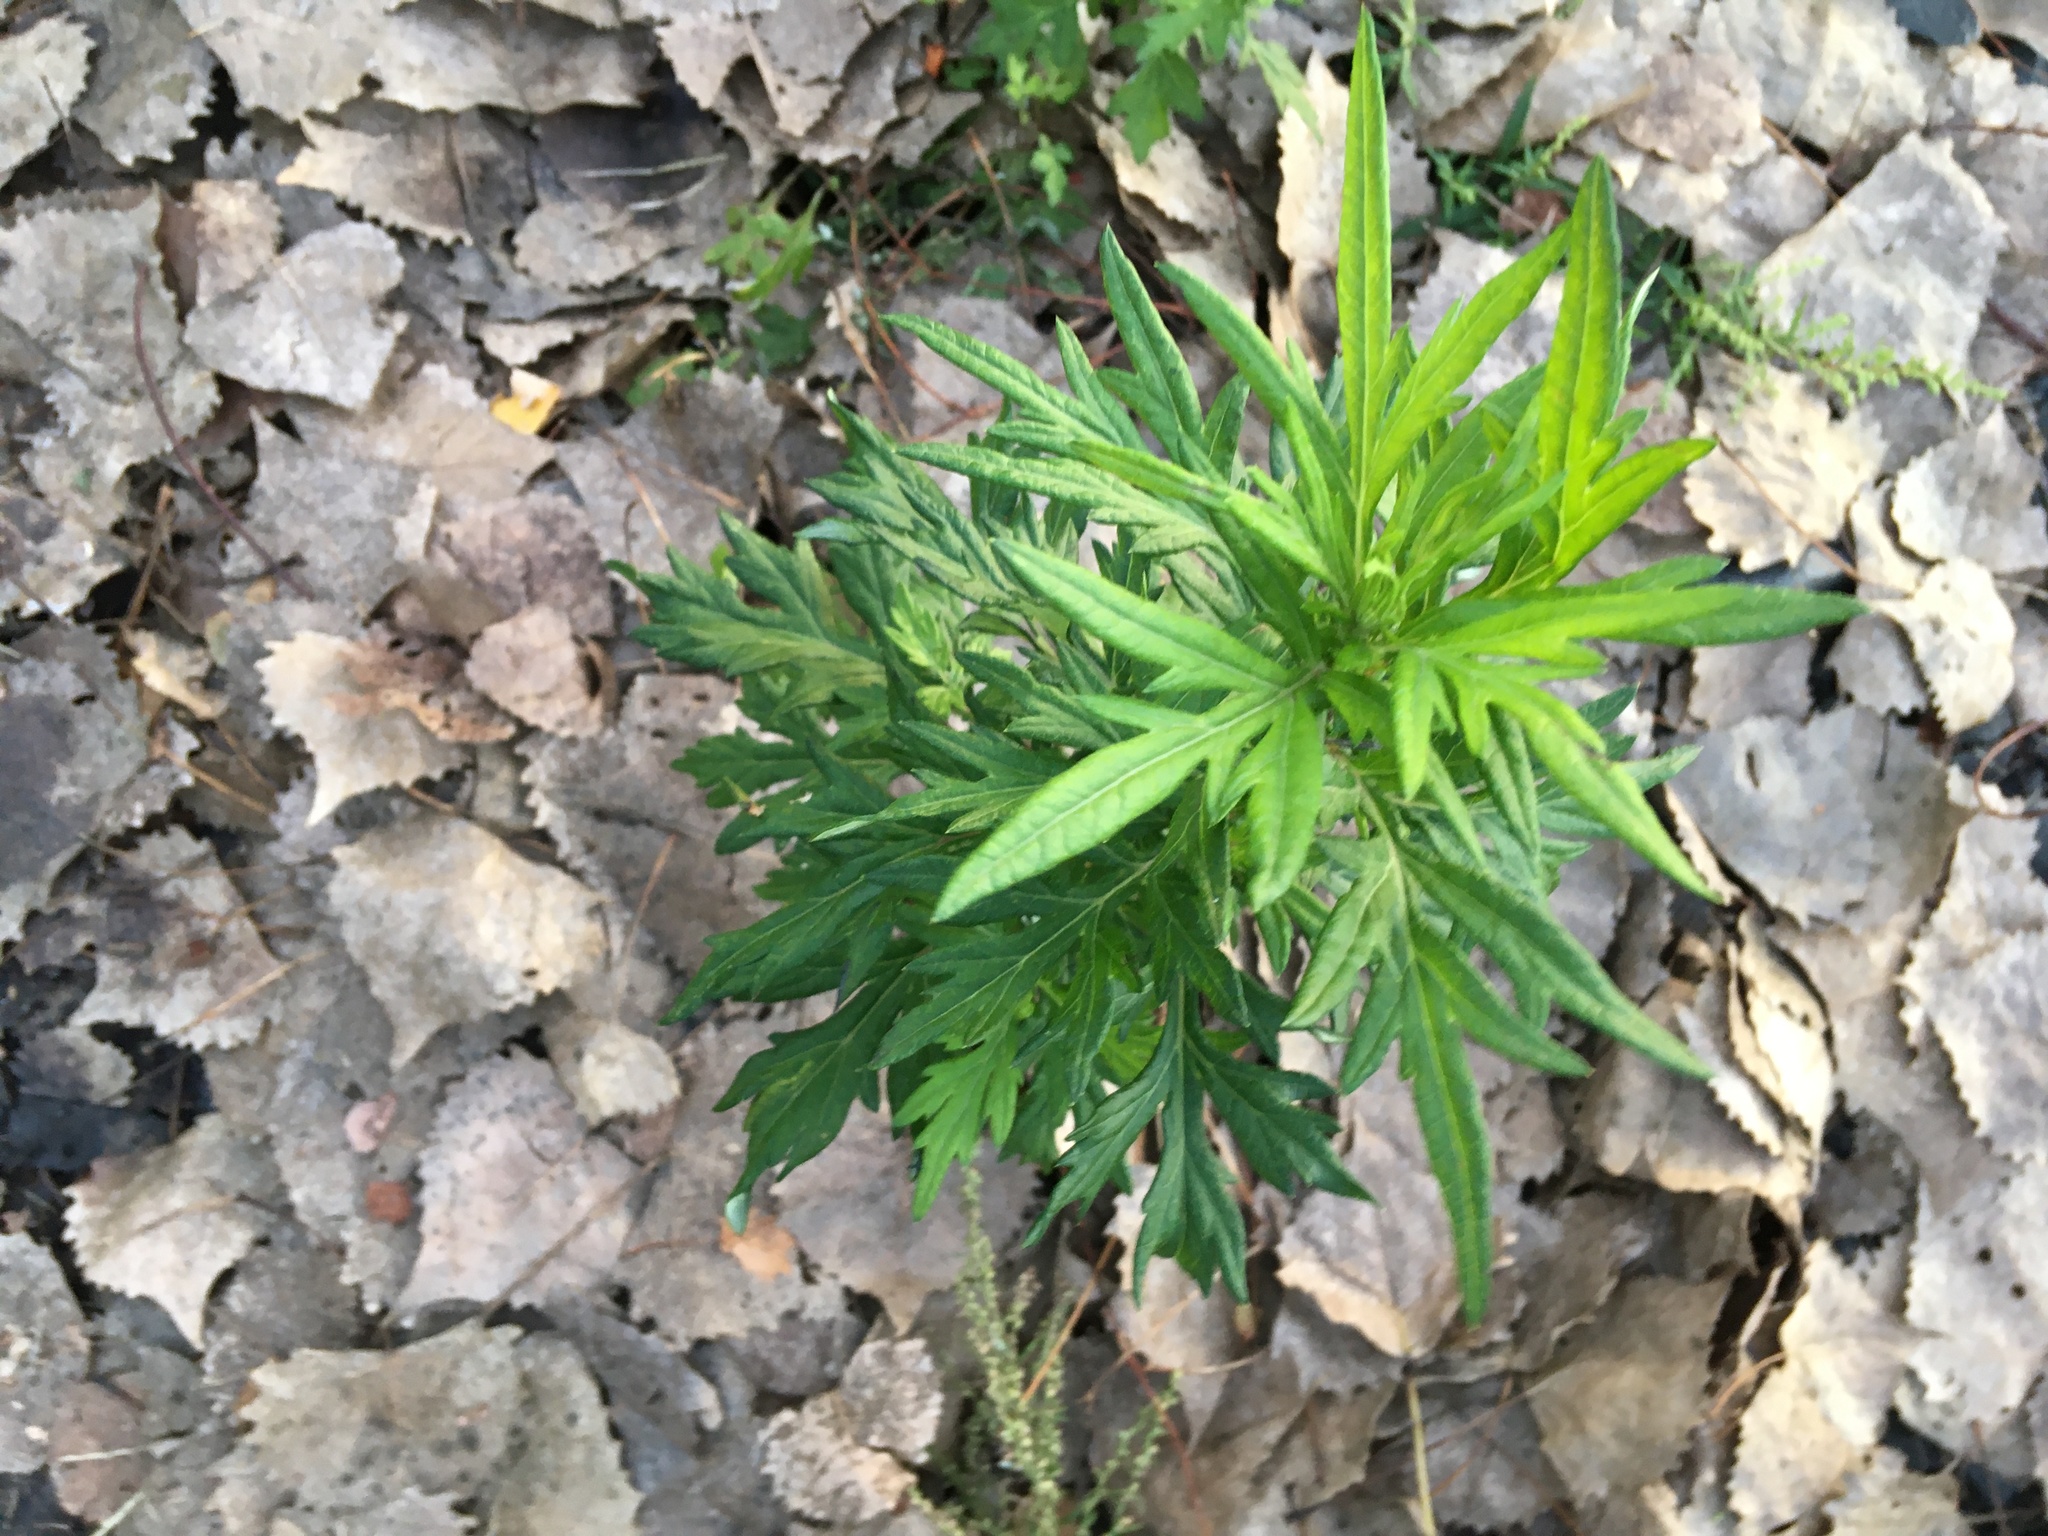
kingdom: Plantae
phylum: Tracheophyta
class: Magnoliopsida
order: Asterales
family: Asteraceae
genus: Artemisia
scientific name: Artemisia vulgaris
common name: Mugwort
